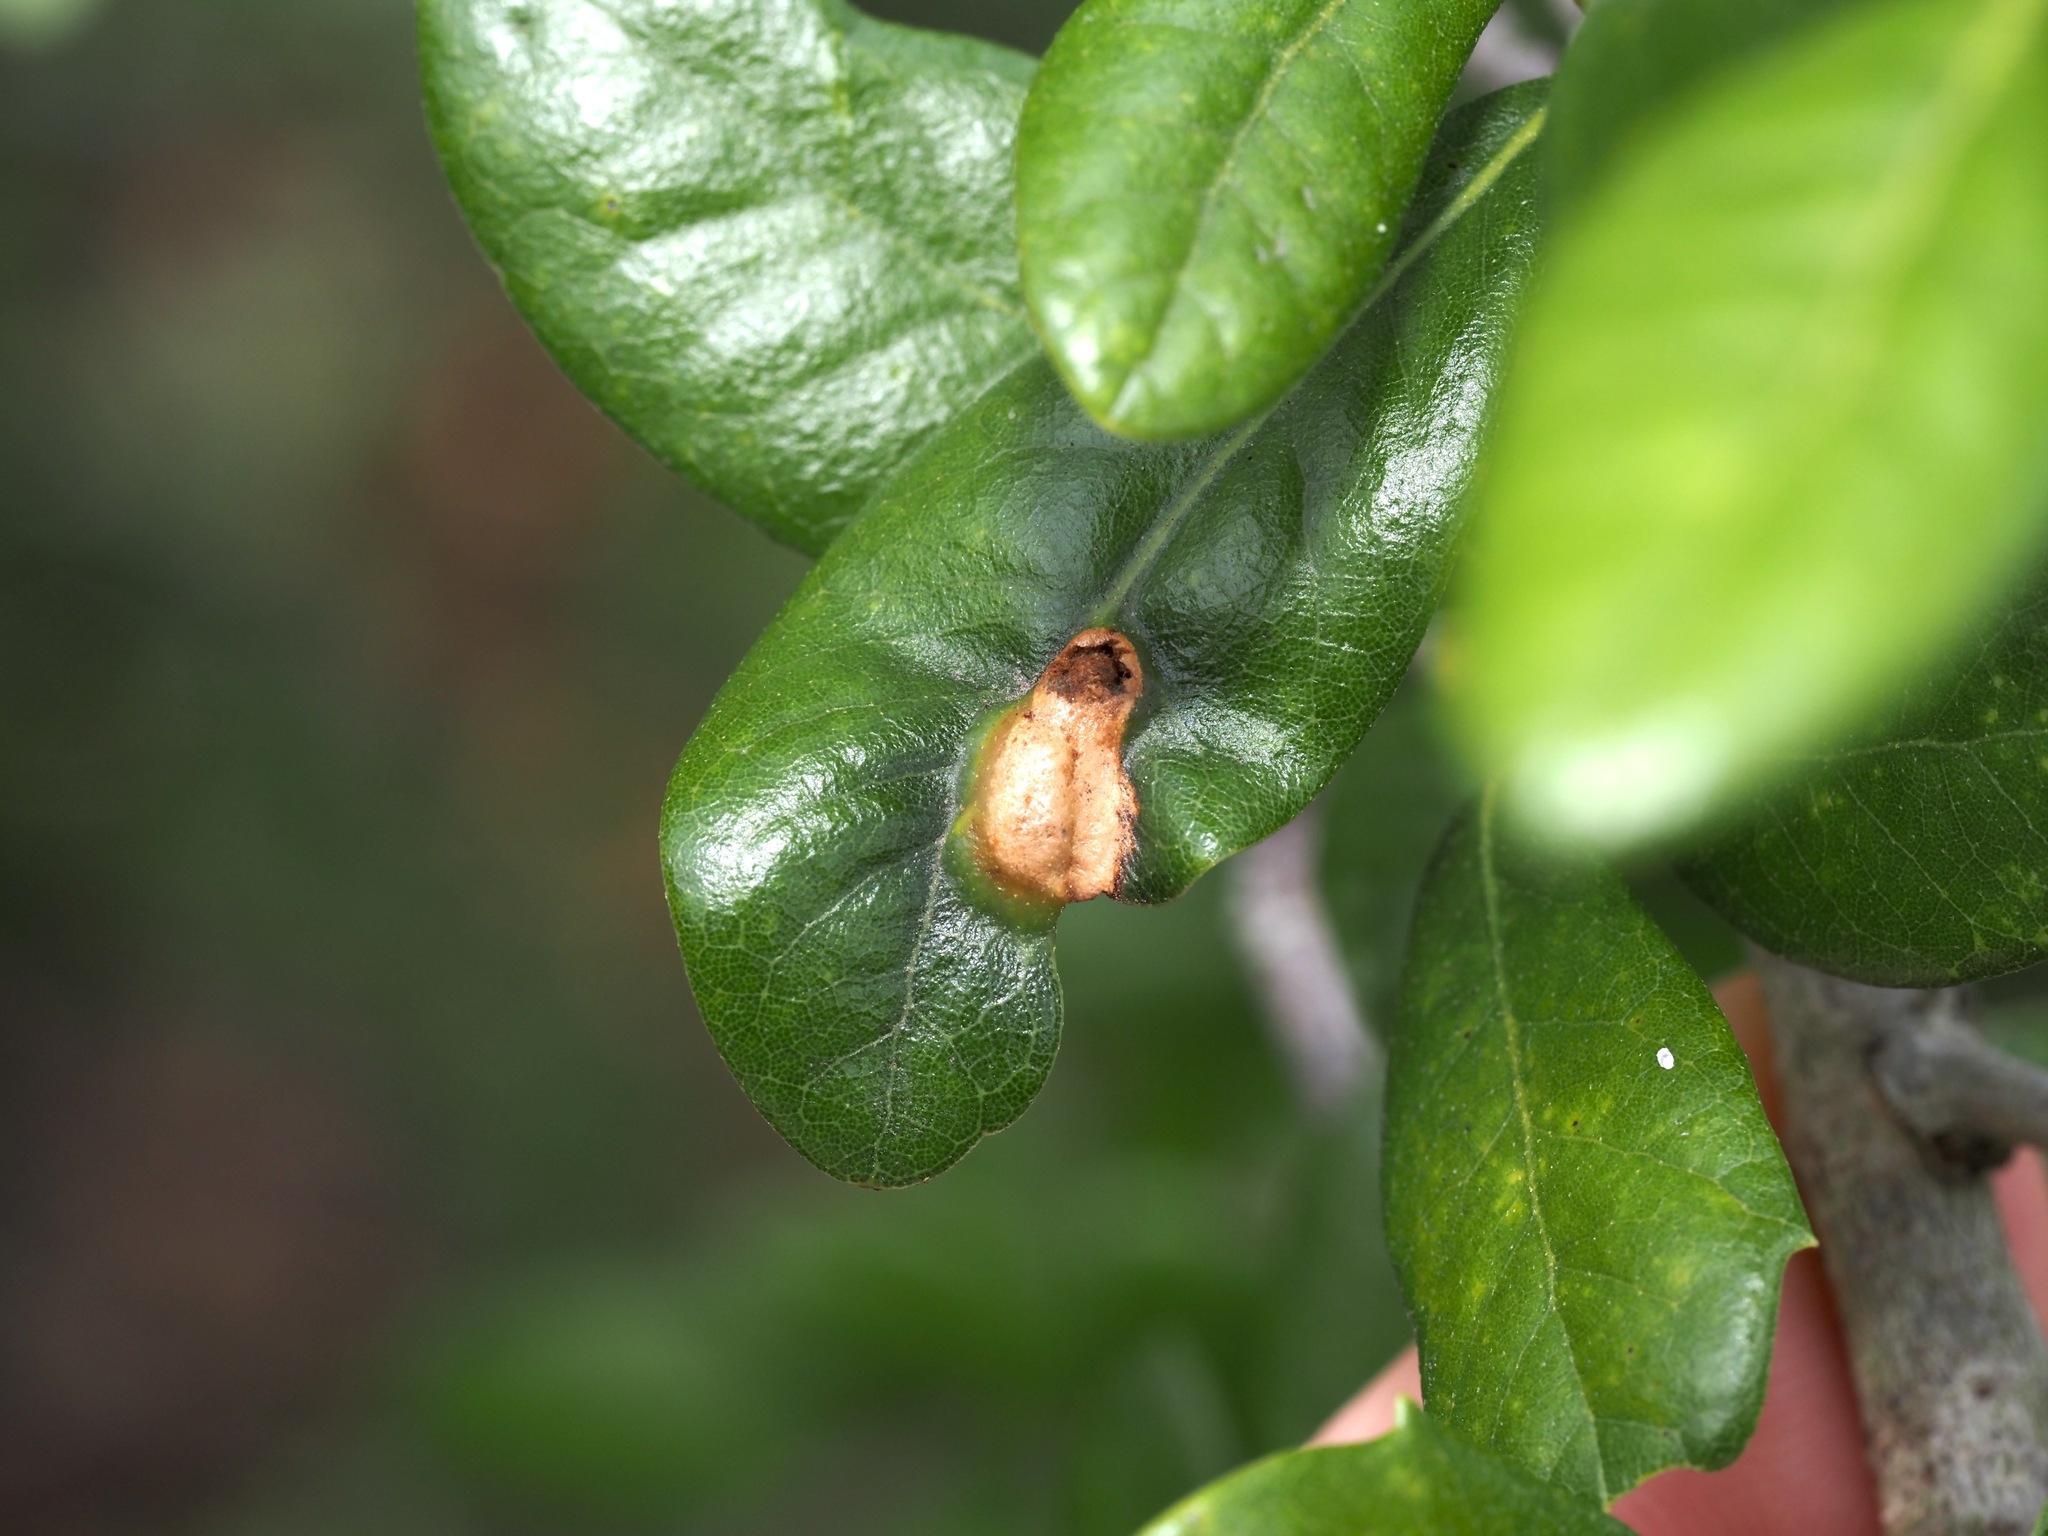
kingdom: Animalia
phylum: Arthropoda
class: Insecta
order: Hymenoptera
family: Cynipidae
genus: Neuroterus
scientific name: Neuroterus
